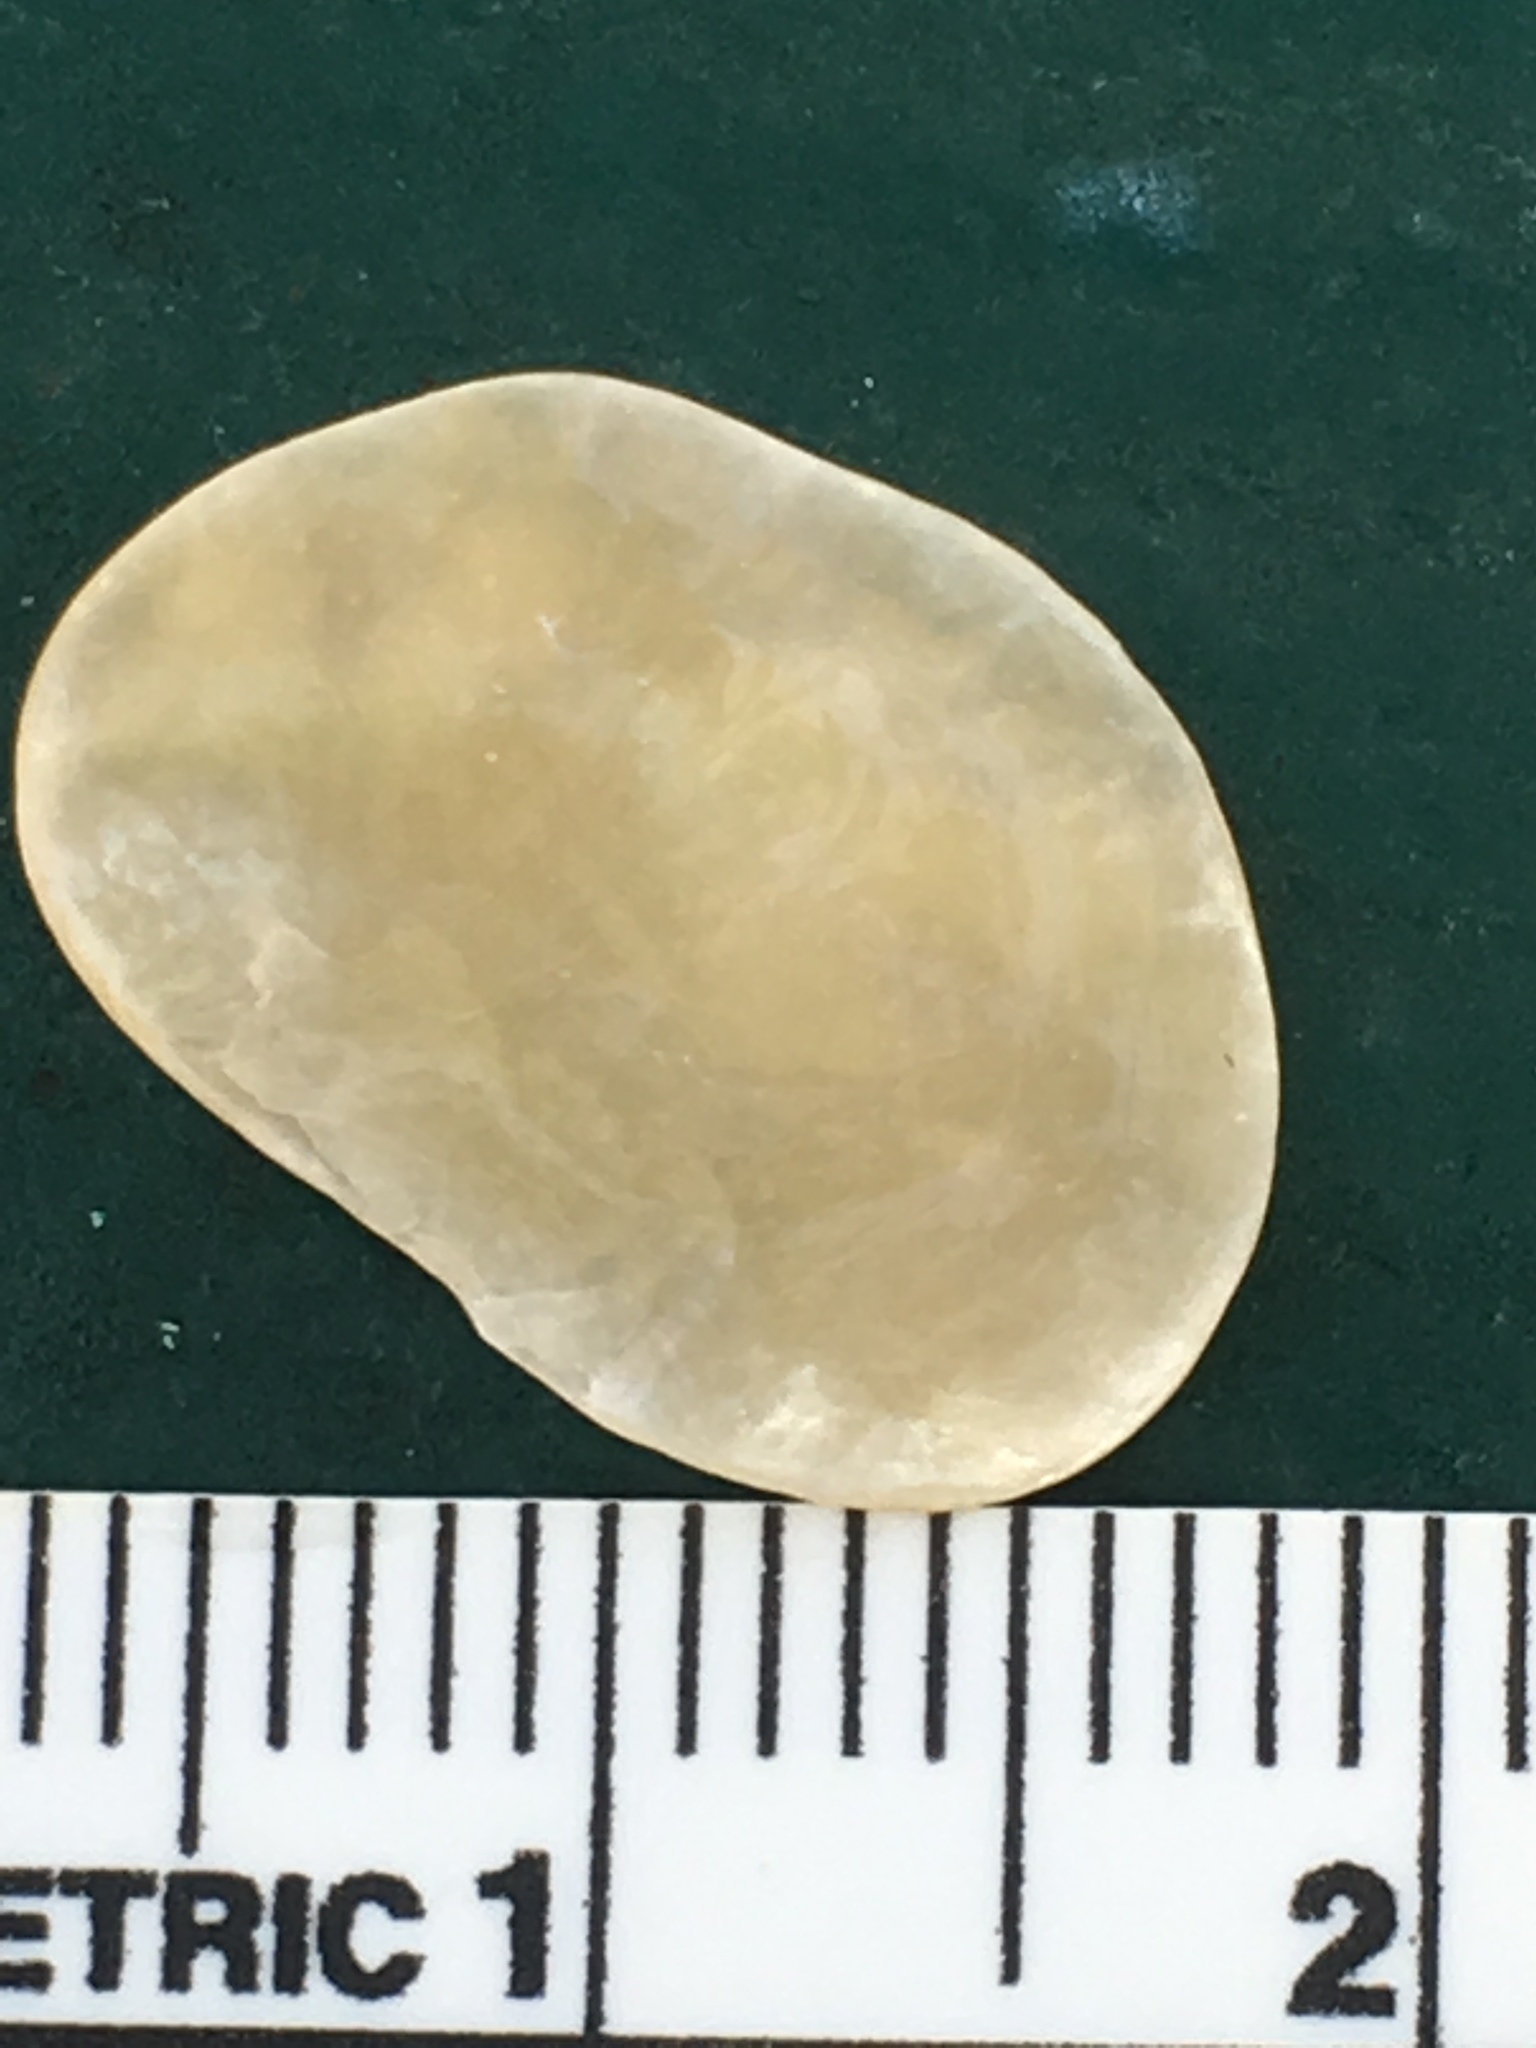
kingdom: Animalia
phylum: Mollusca
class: Bivalvia
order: Pectinida
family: Anomiidae
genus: Anomia
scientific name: Anomia simplex
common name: Common jingle shell
